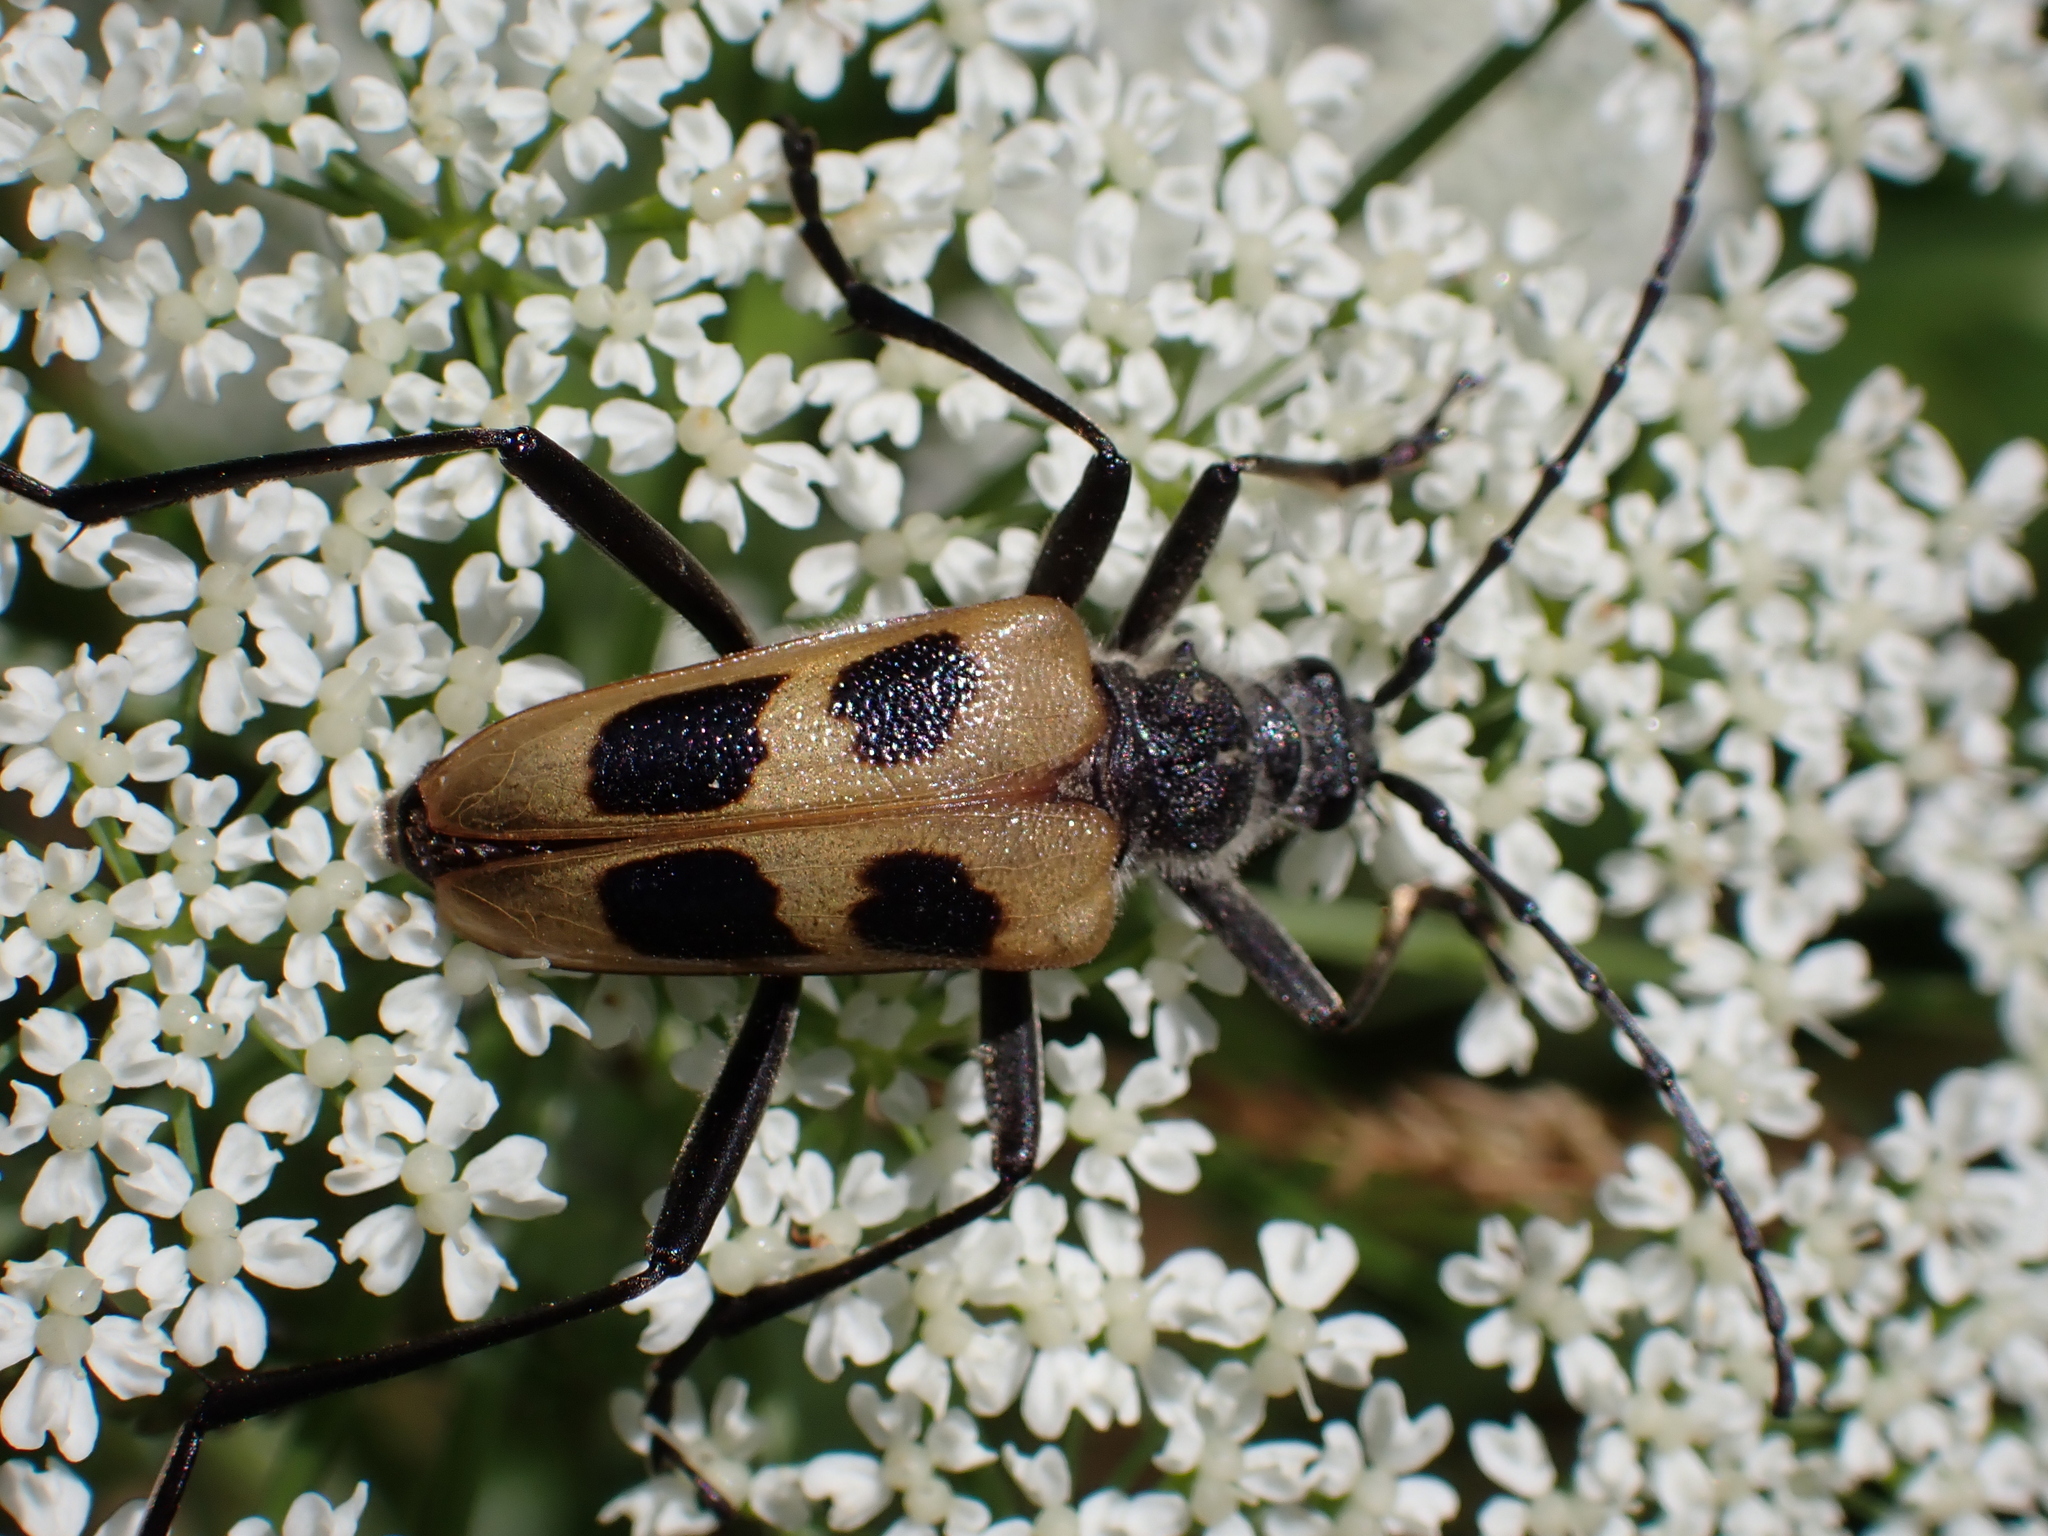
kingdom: Animalia
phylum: Arthropoda
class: Insecta
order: Coleoptera
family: Cerambycidae
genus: Pachyta
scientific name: Pachyta quadrimaculata
